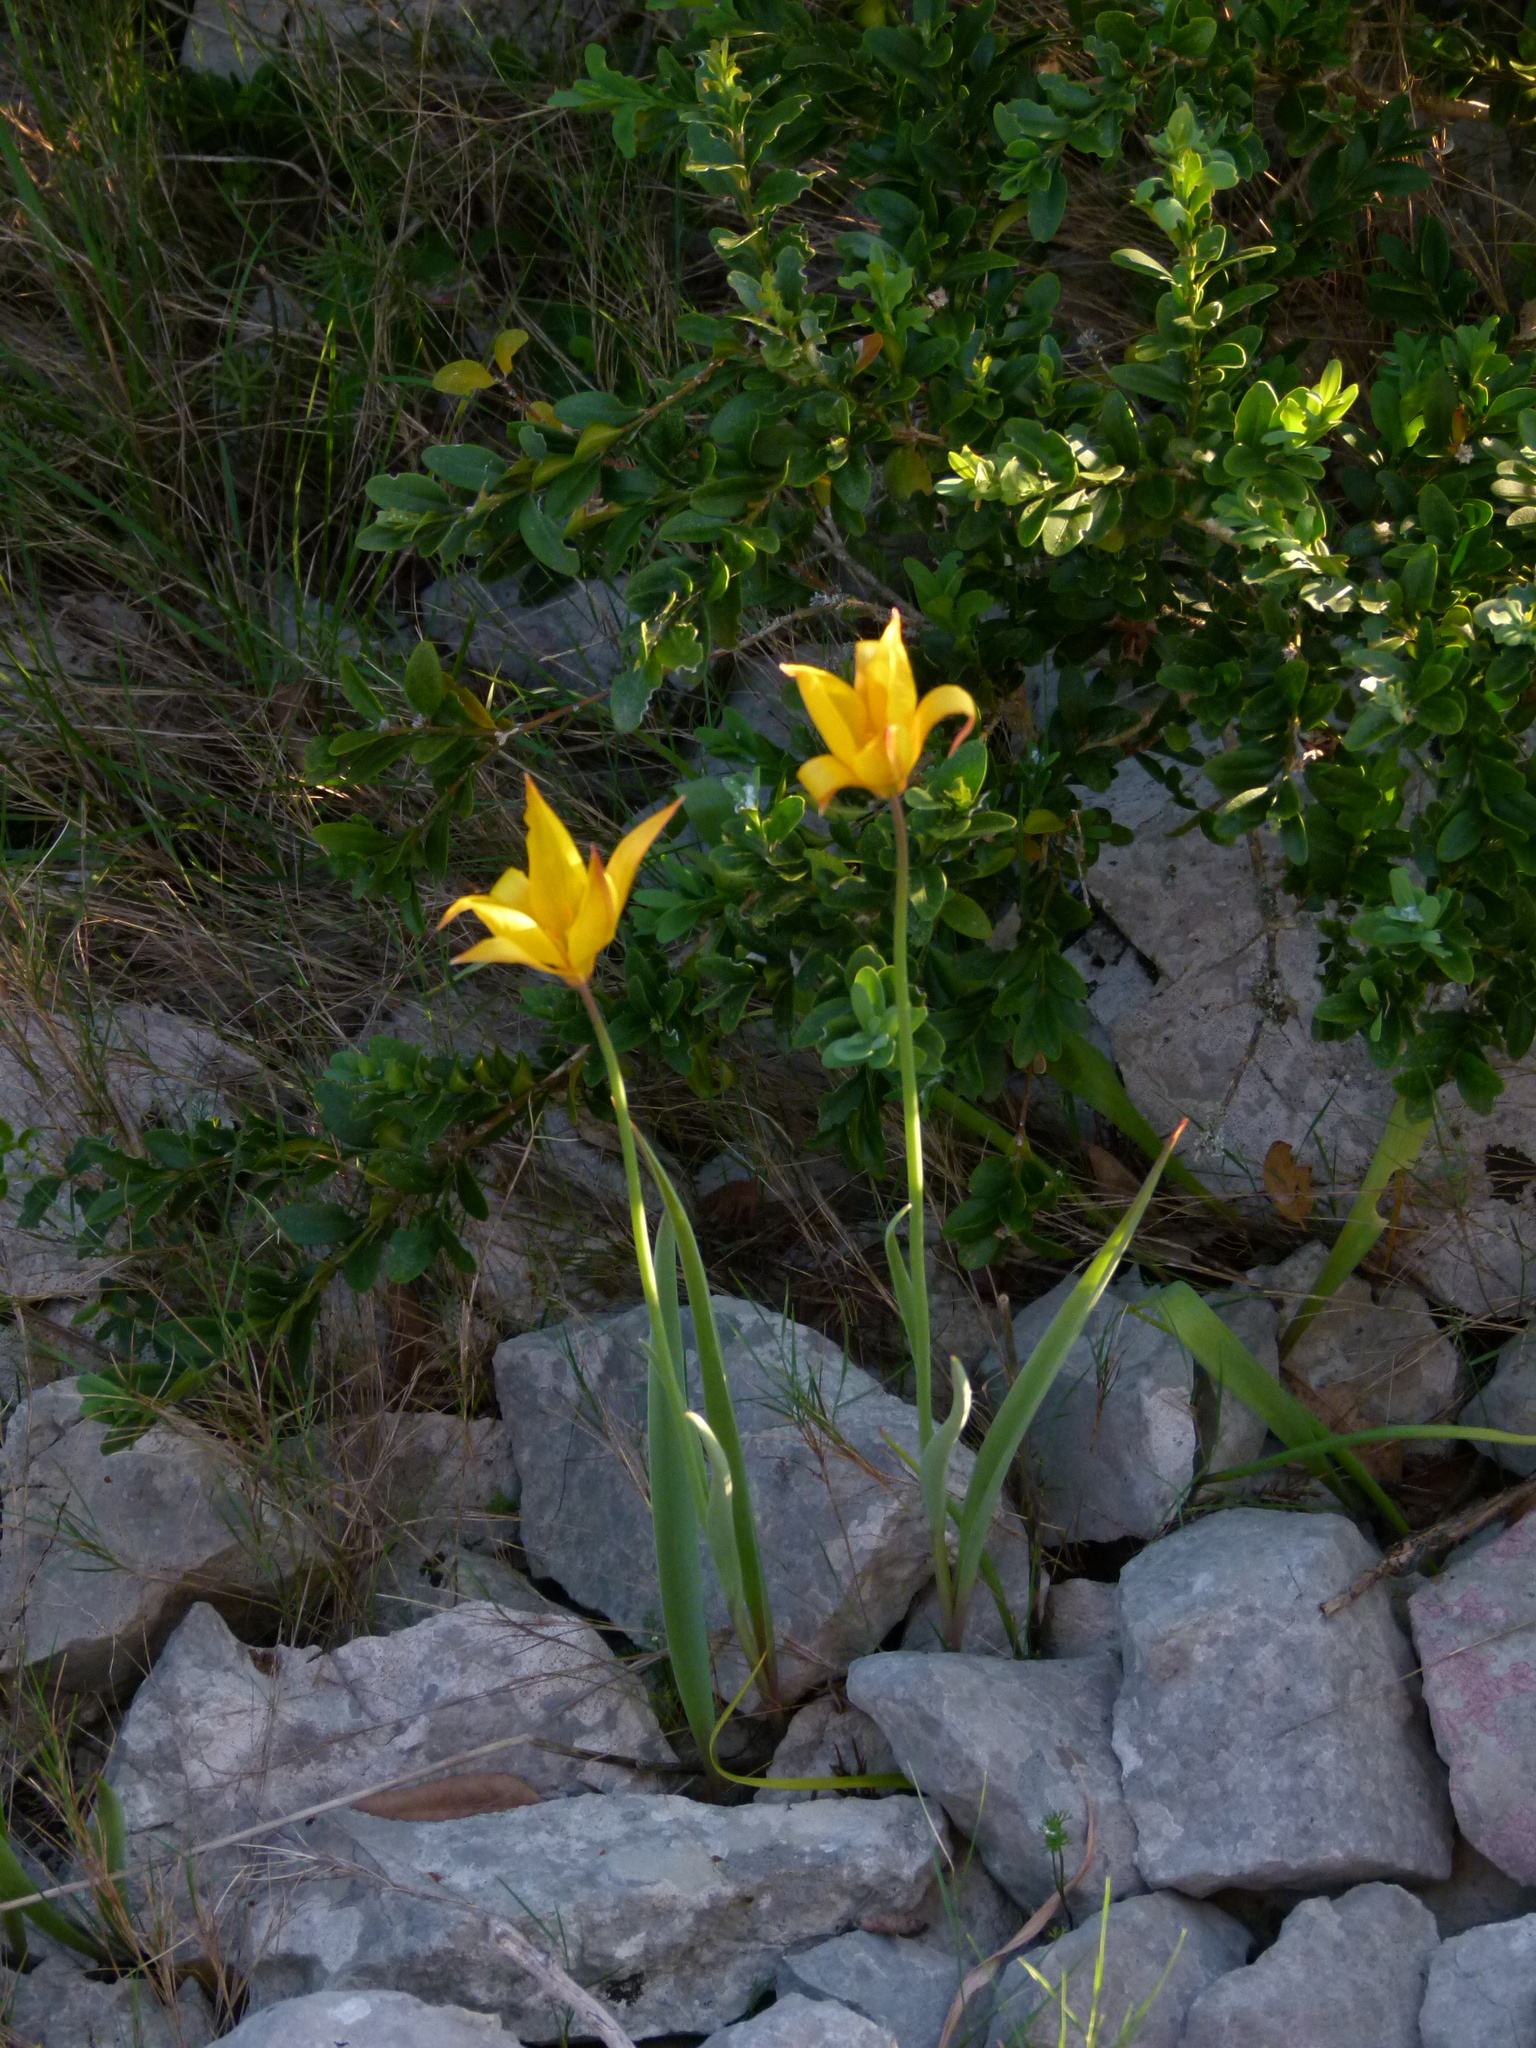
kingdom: Plantae
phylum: Tracheophyta
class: Liliopsida
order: Liliales
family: Liliaceae
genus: Tulipa
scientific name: Tulipa sylvestris
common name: Wild tulip
